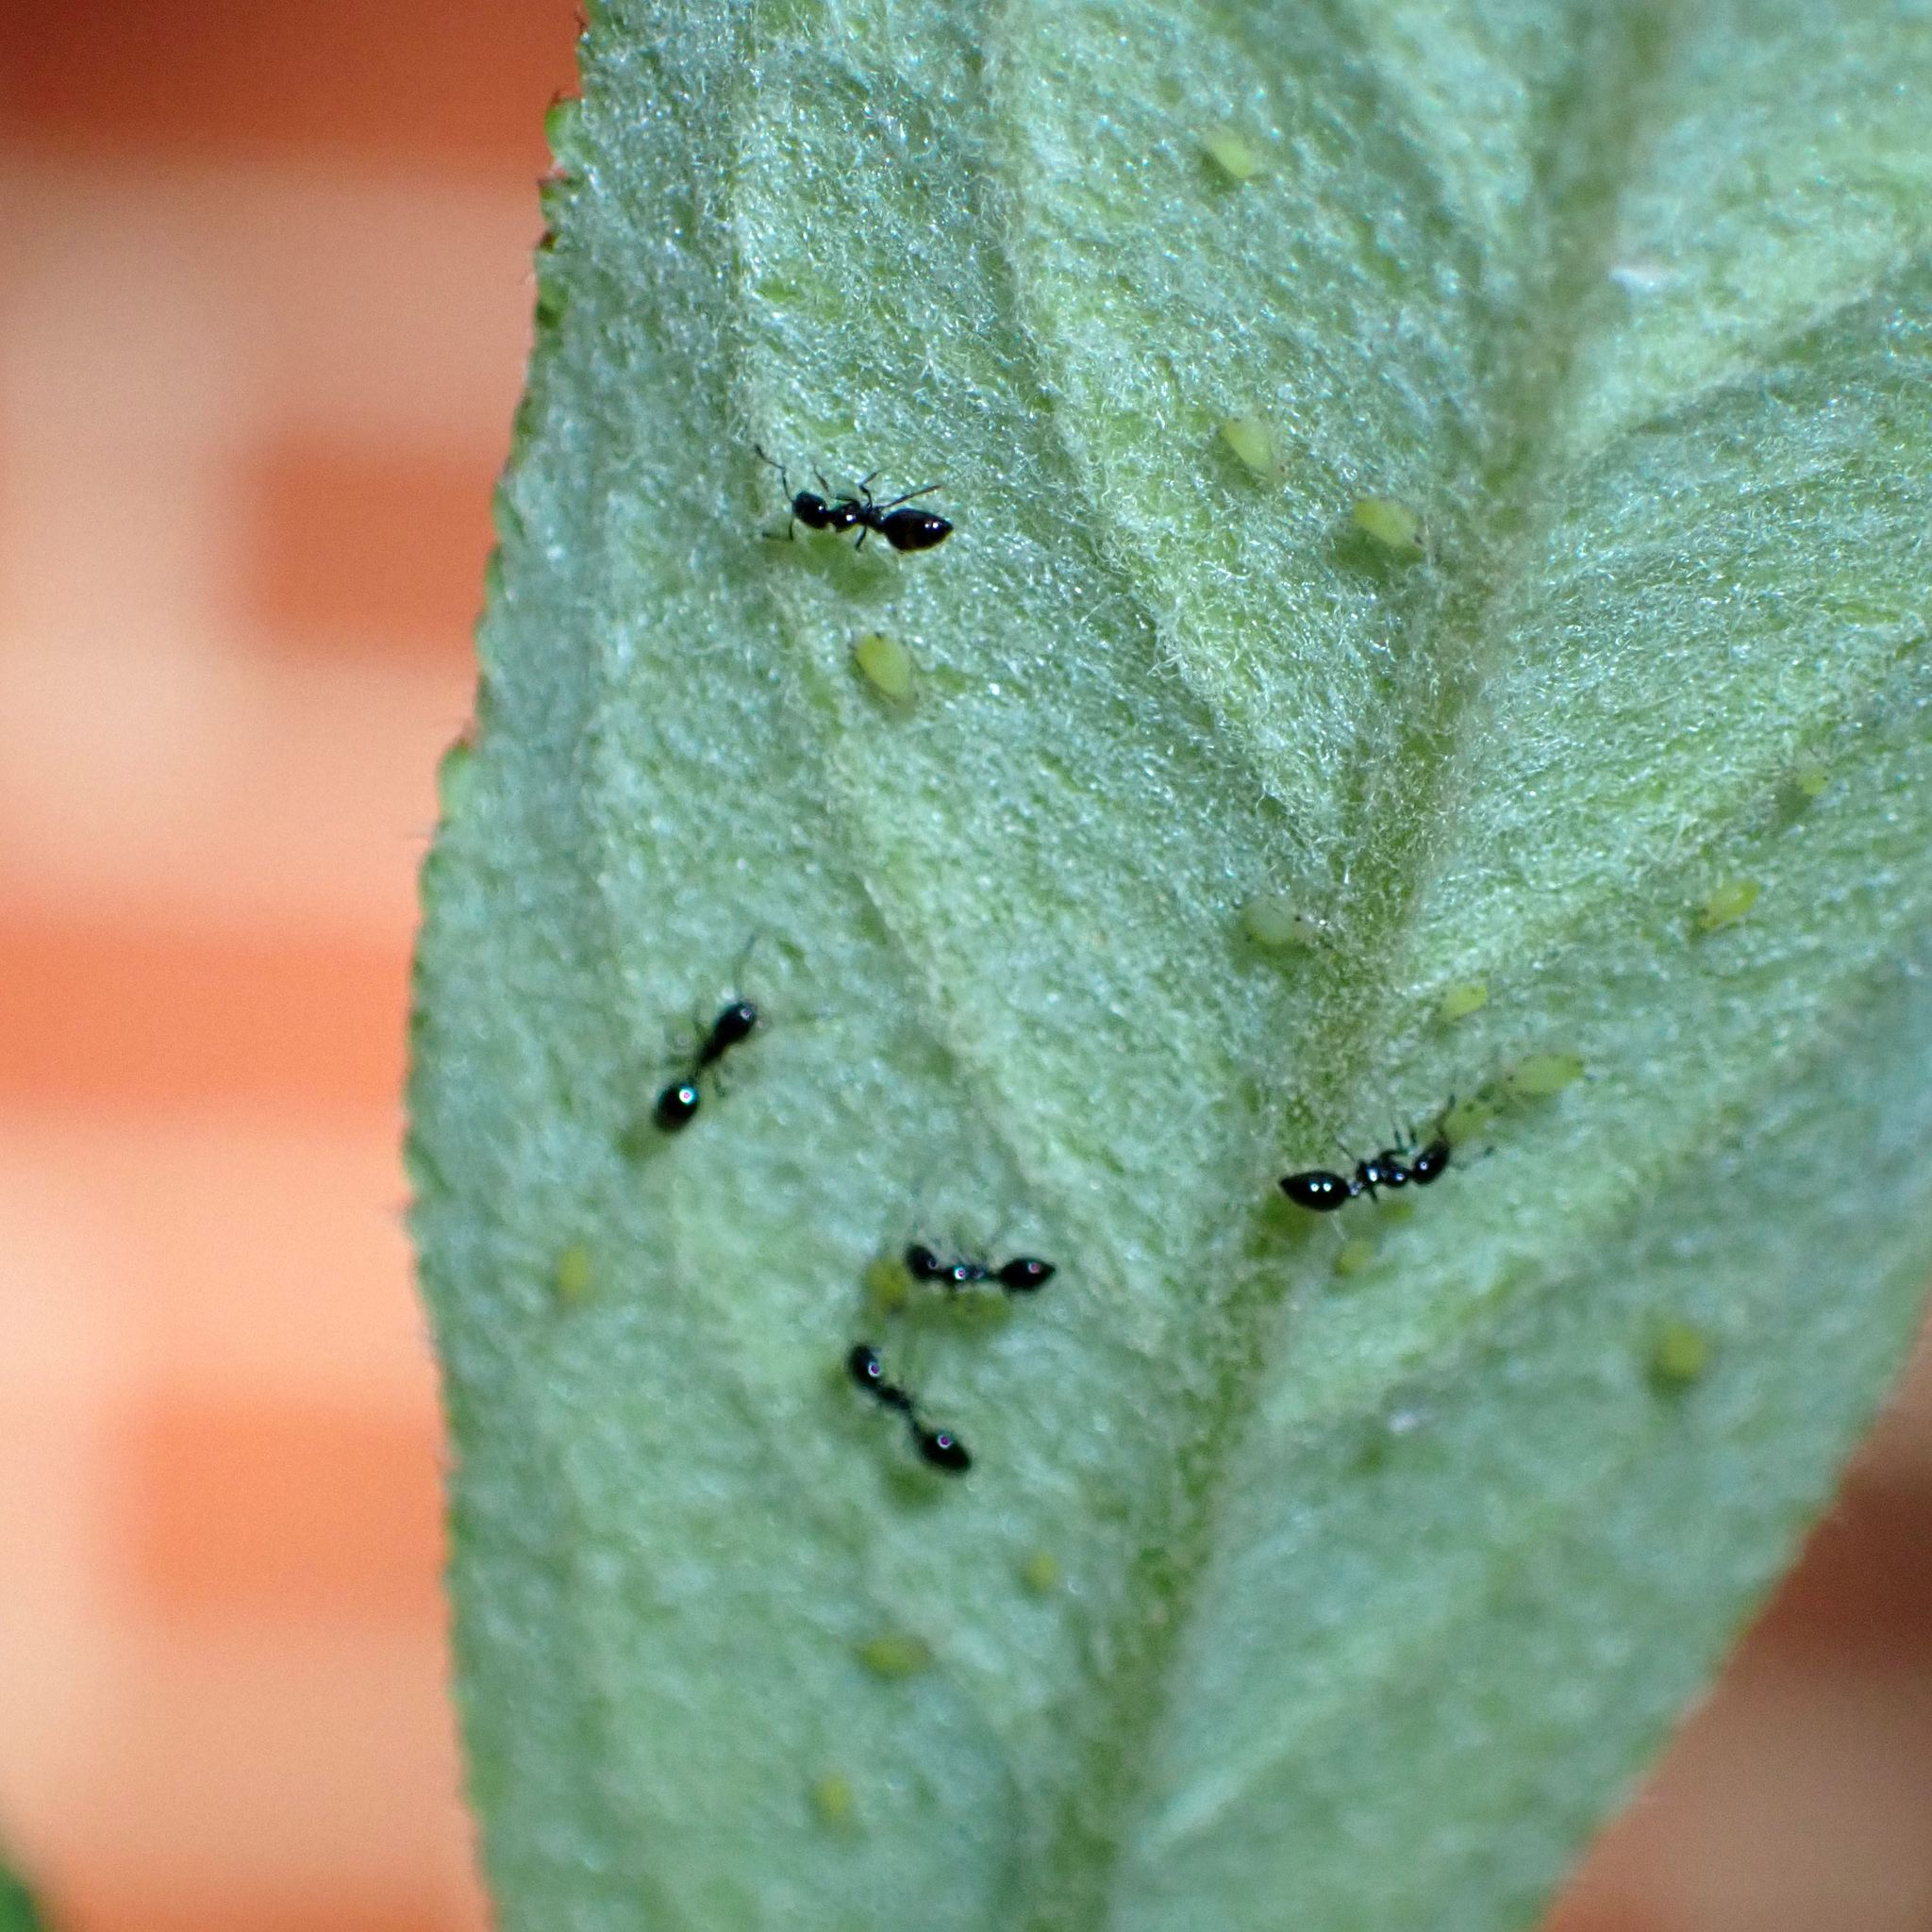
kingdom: Animalia
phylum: Arthropoda
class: Insecta
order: Hymenoptera
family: Formicidae
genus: Monomorium
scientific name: Monomorium minimum
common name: Little black ant
